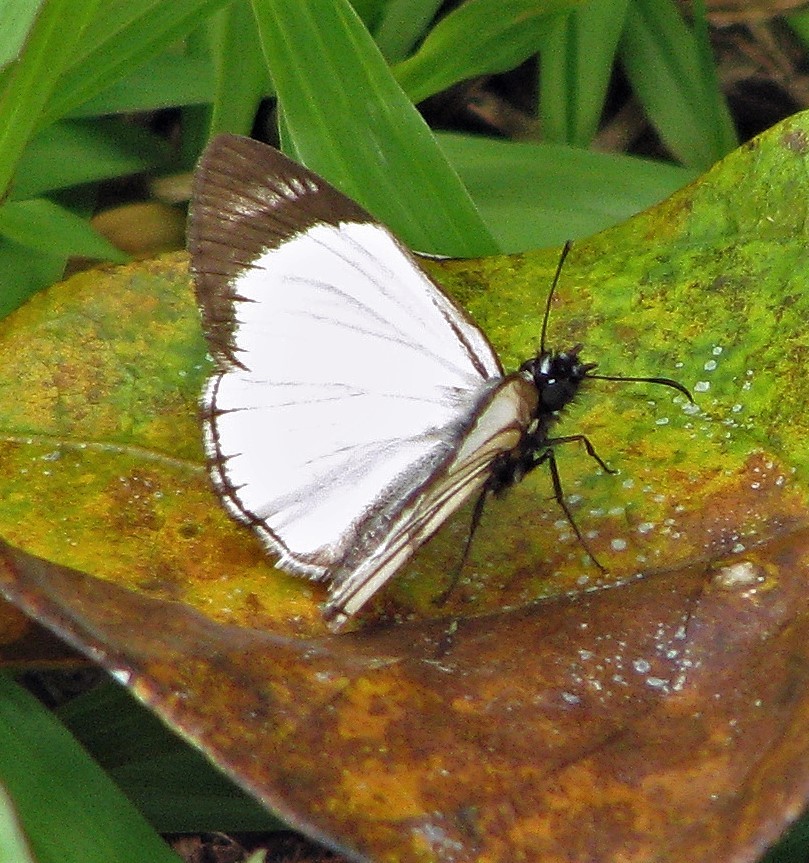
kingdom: Animalia
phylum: Arthropoda
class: Insecta
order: Lepidoptera
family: Hesperiidae
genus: Heliopetes
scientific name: Heliopetes alana
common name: Alana white-skipper
